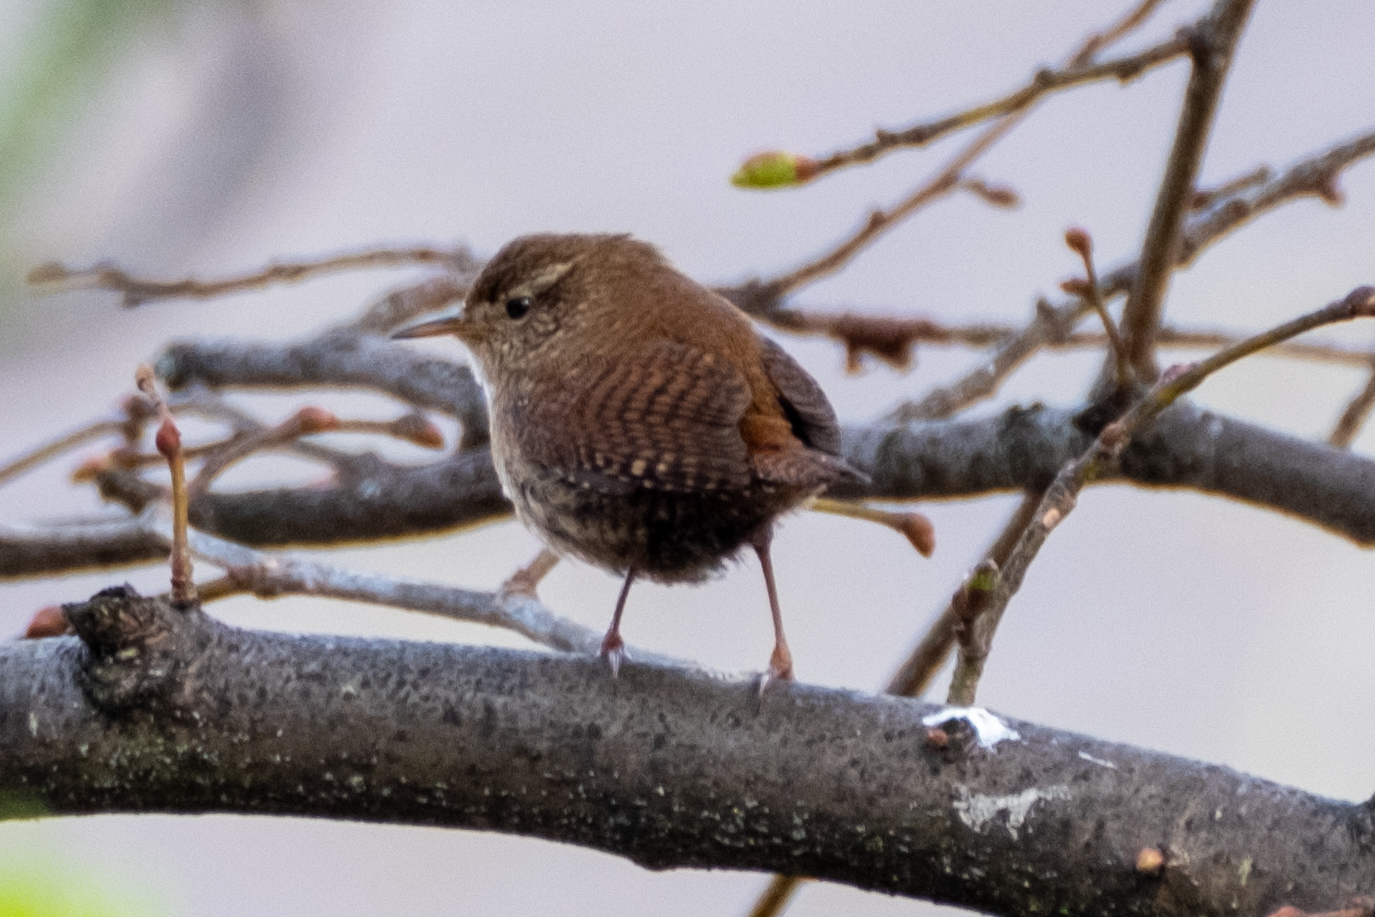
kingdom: Animalia
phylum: Chordata
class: Aves
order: Passeriformes
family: Troglodytidae
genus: Troglodytes
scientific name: Troglodytes troglodytes
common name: Eurasian wren
